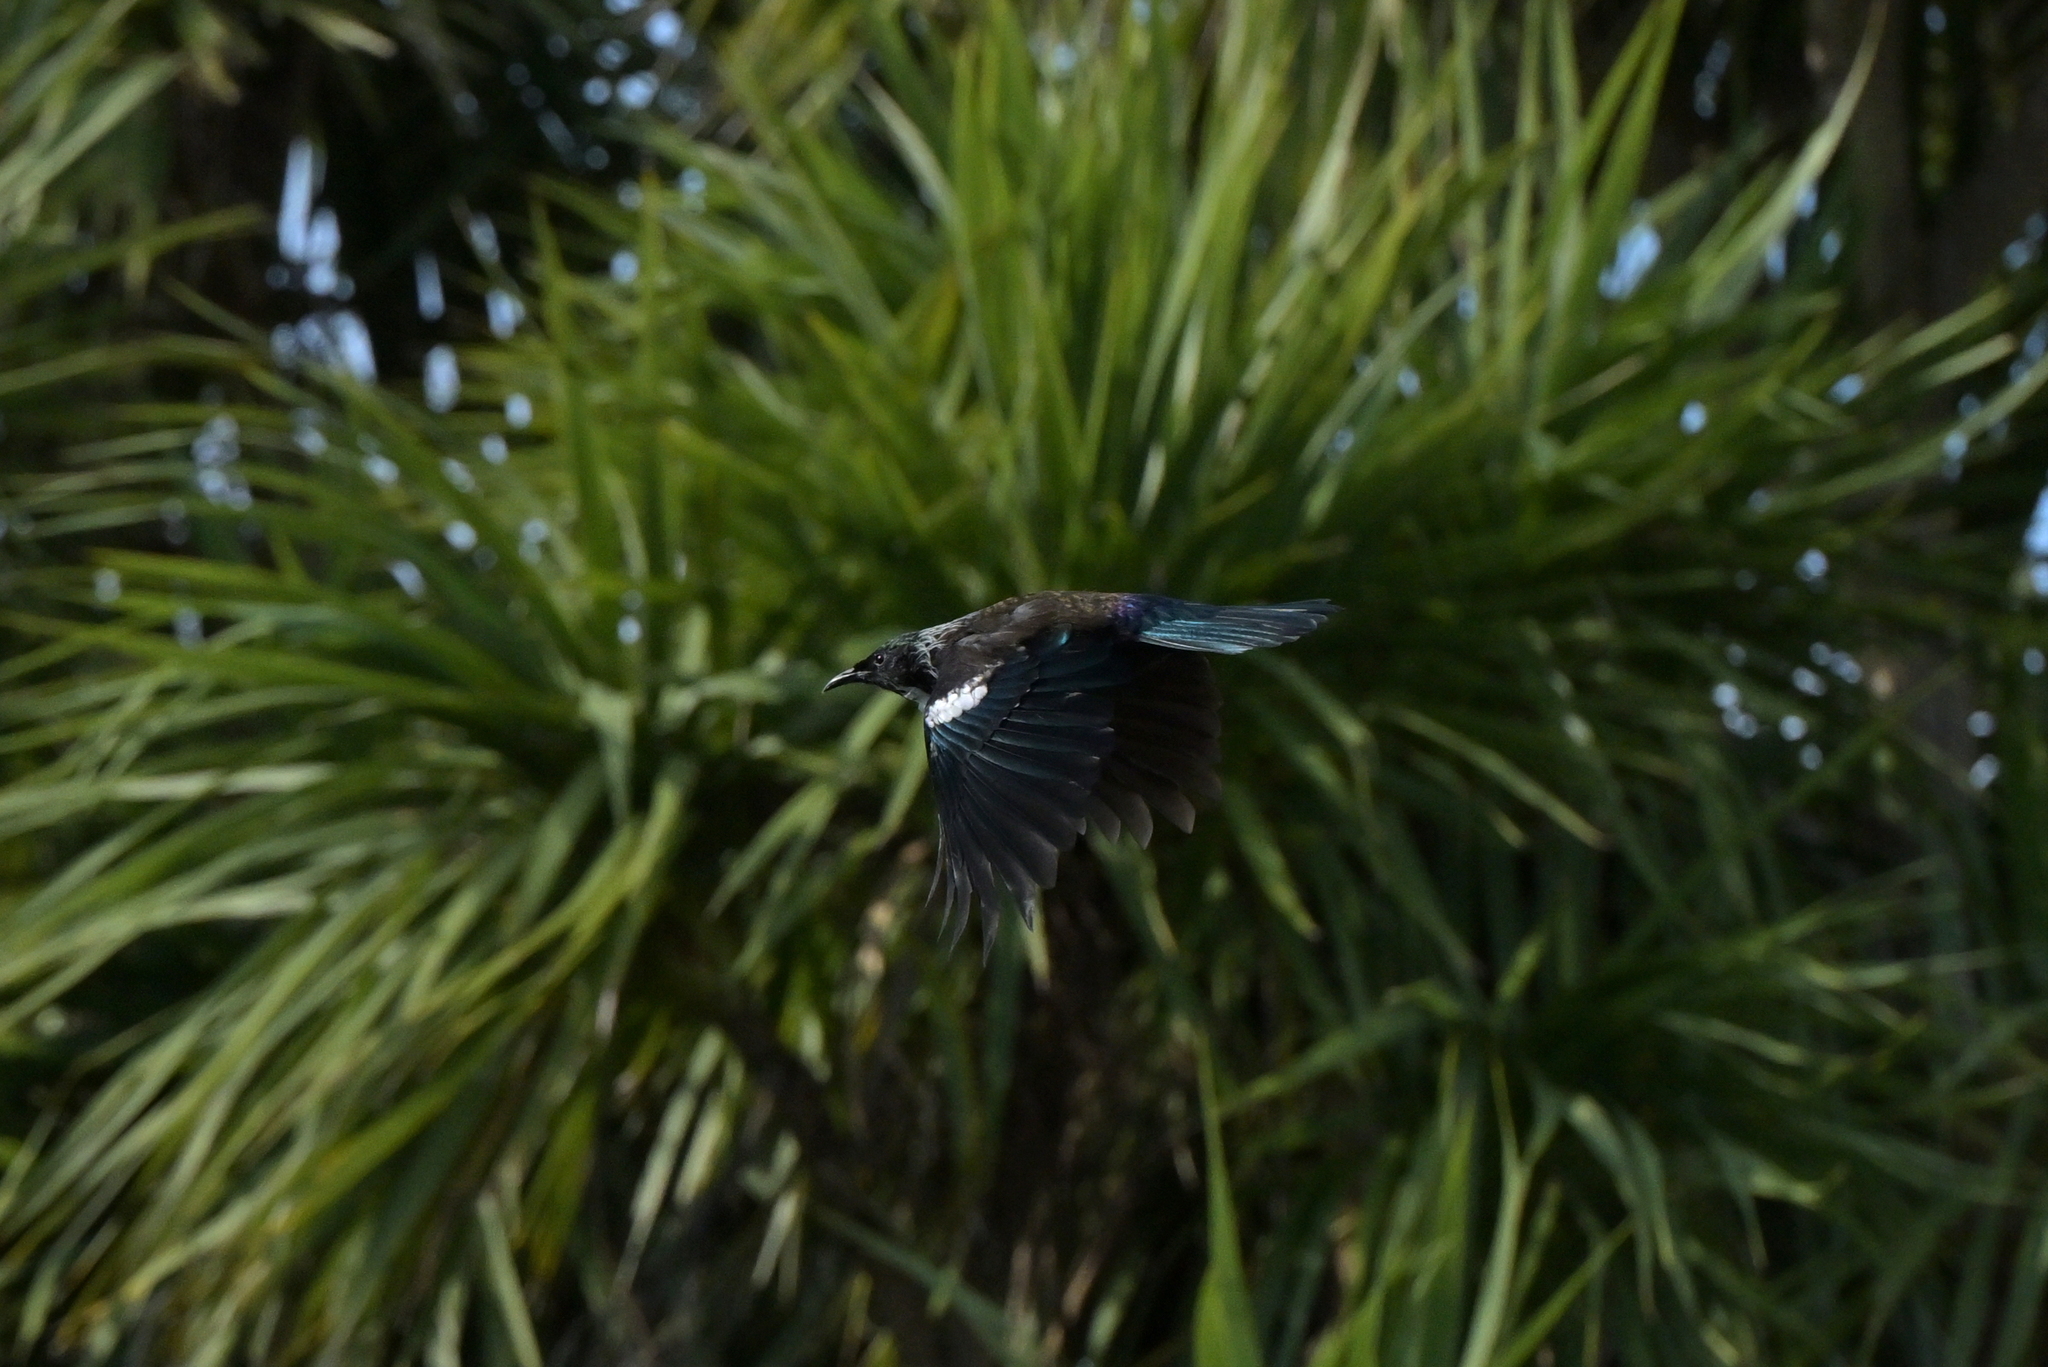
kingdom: Animalia
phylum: Chordata
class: Aves
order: Passeriformes
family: Meliphagidae
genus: Prosthemadera
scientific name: Prosthemadera novaeseelandiae
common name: Tui
